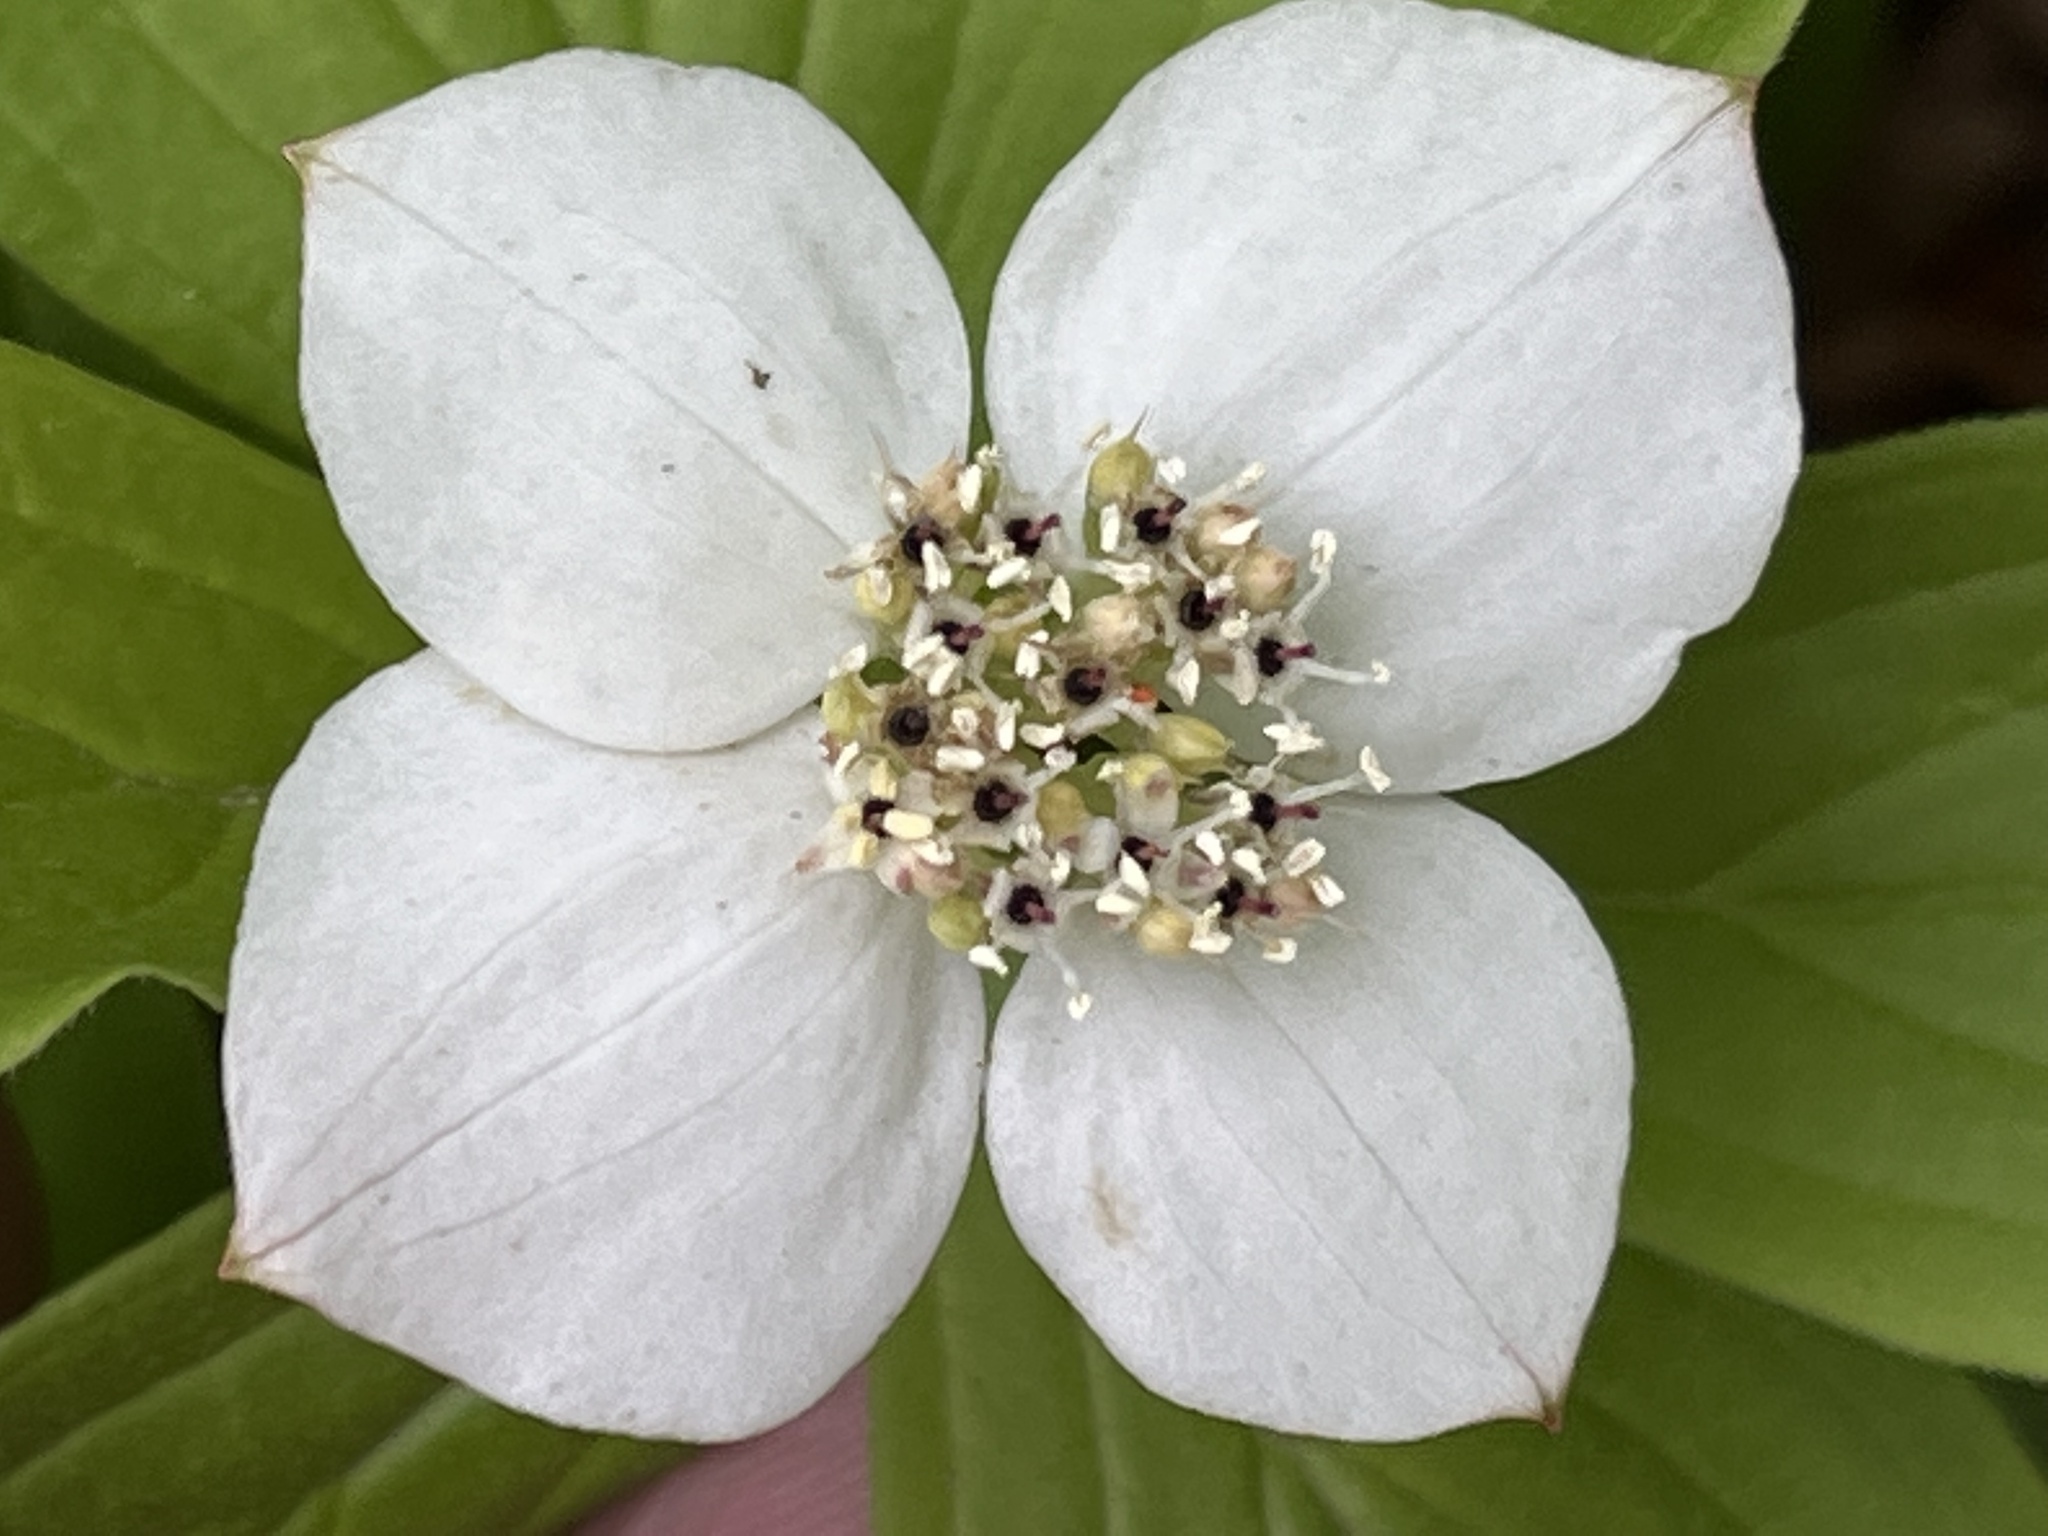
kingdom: Plantae
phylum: Tracheophyta
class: Magnoliopsida
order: Cornales
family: Cornaceae
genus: Cornus
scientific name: Cornus canadensis
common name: Creeping dogwood
